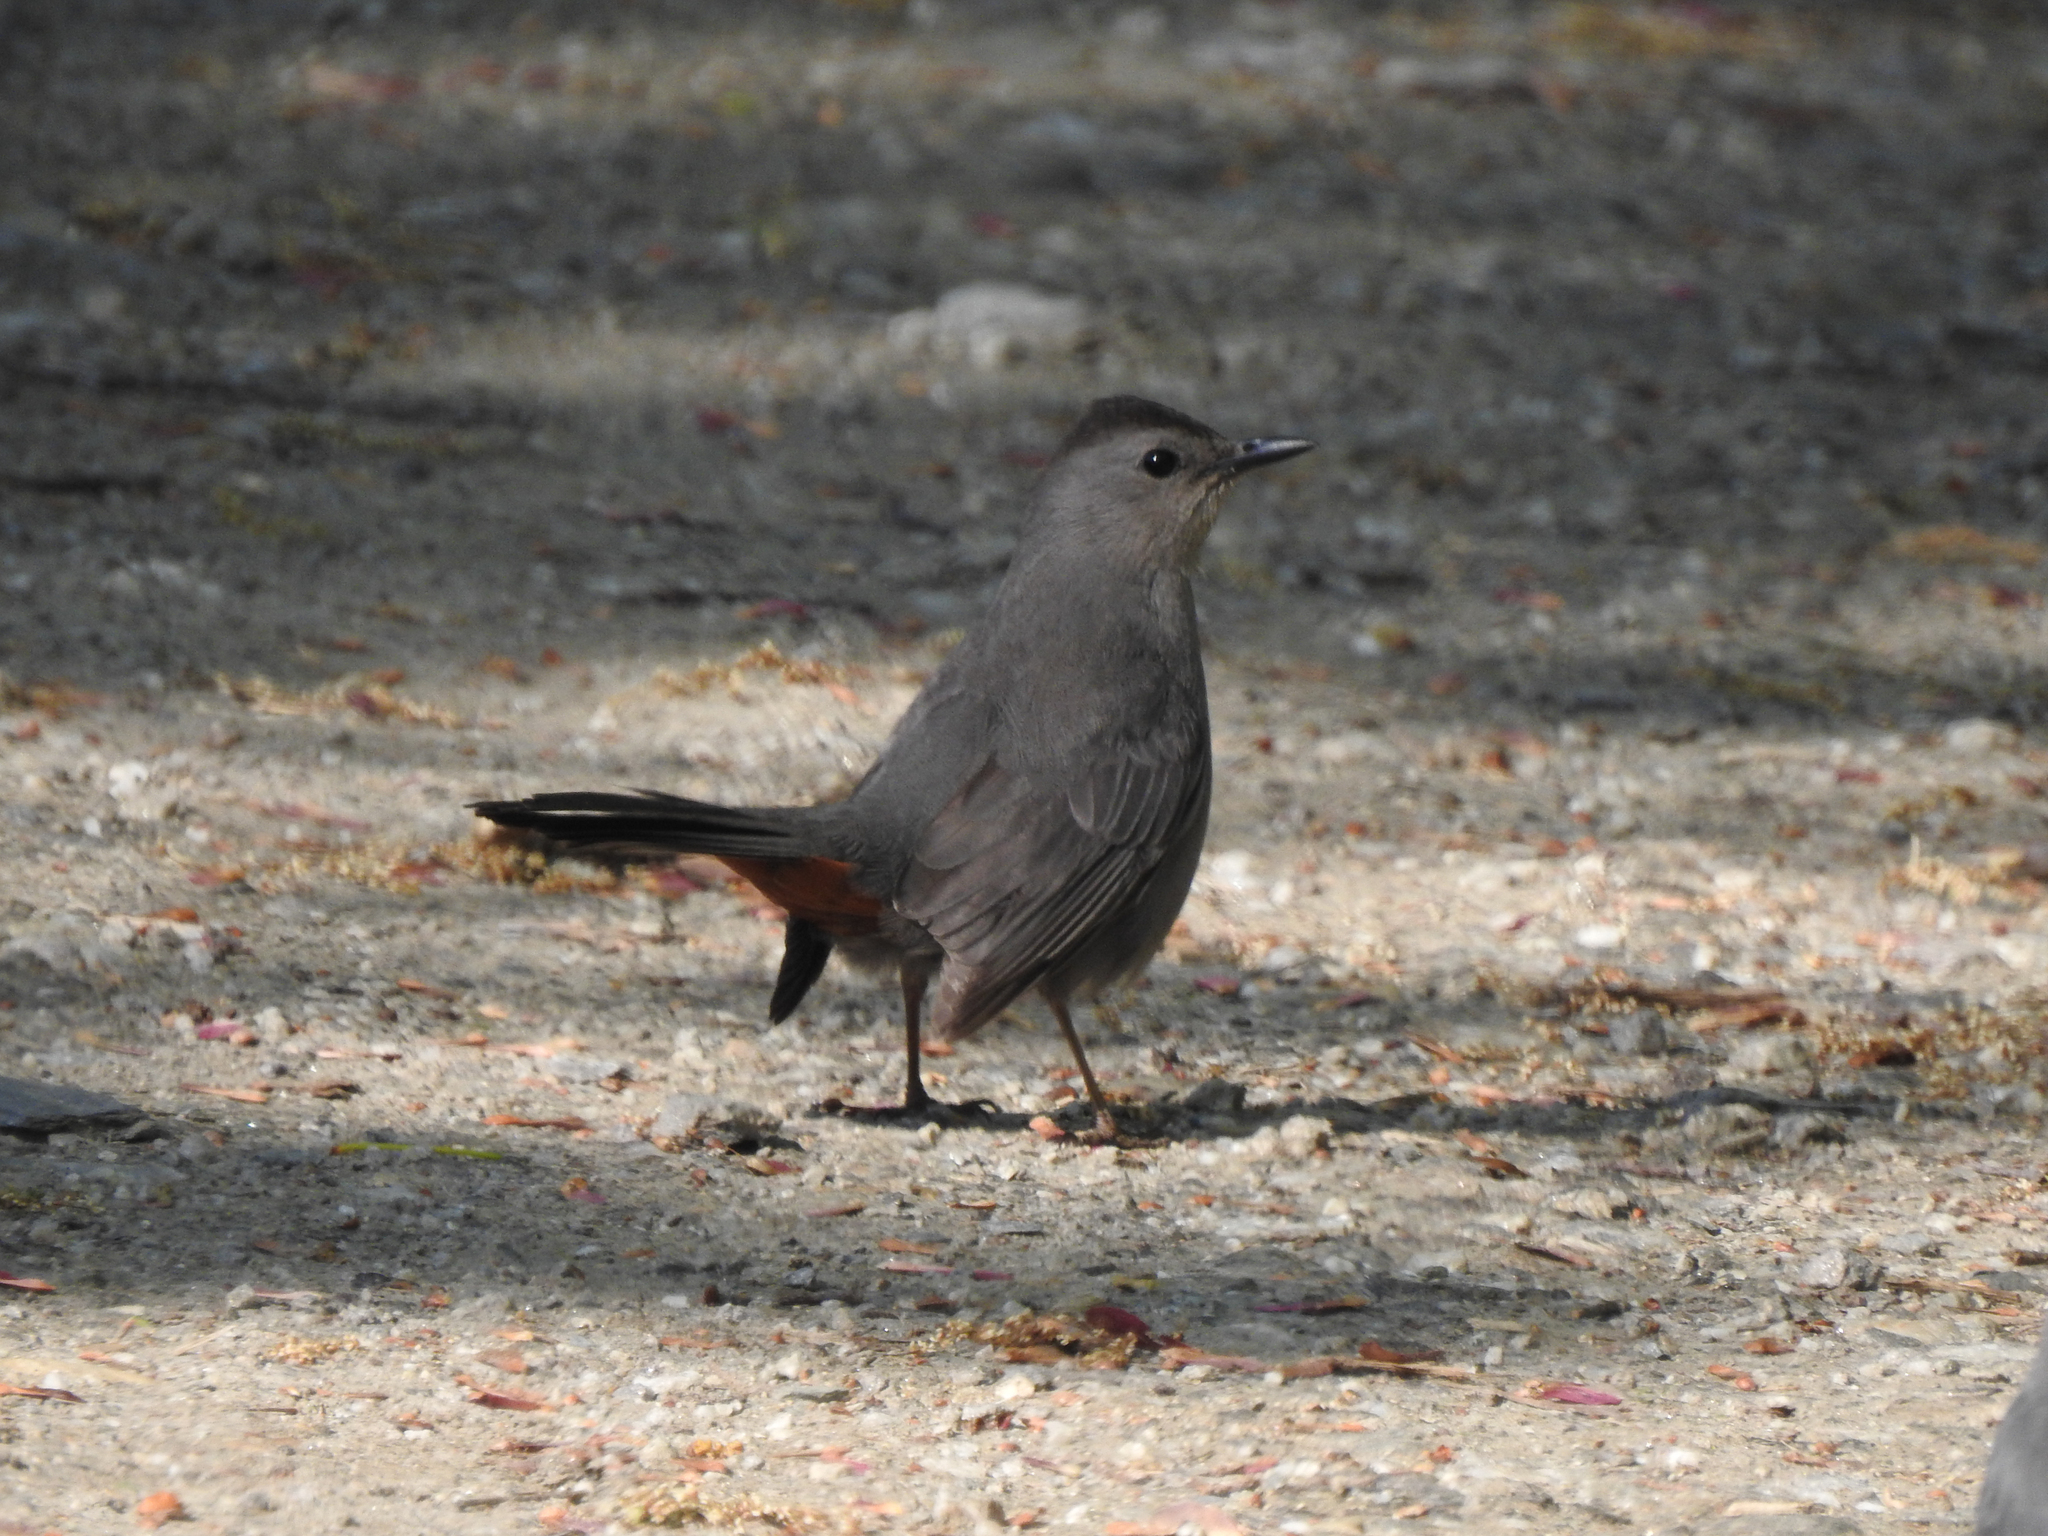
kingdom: Animalia
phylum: Chordata
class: Aves
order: Passeriformes
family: Mimidae
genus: Dumetella
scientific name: Dumetella carolinensis
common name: Gray catbird
